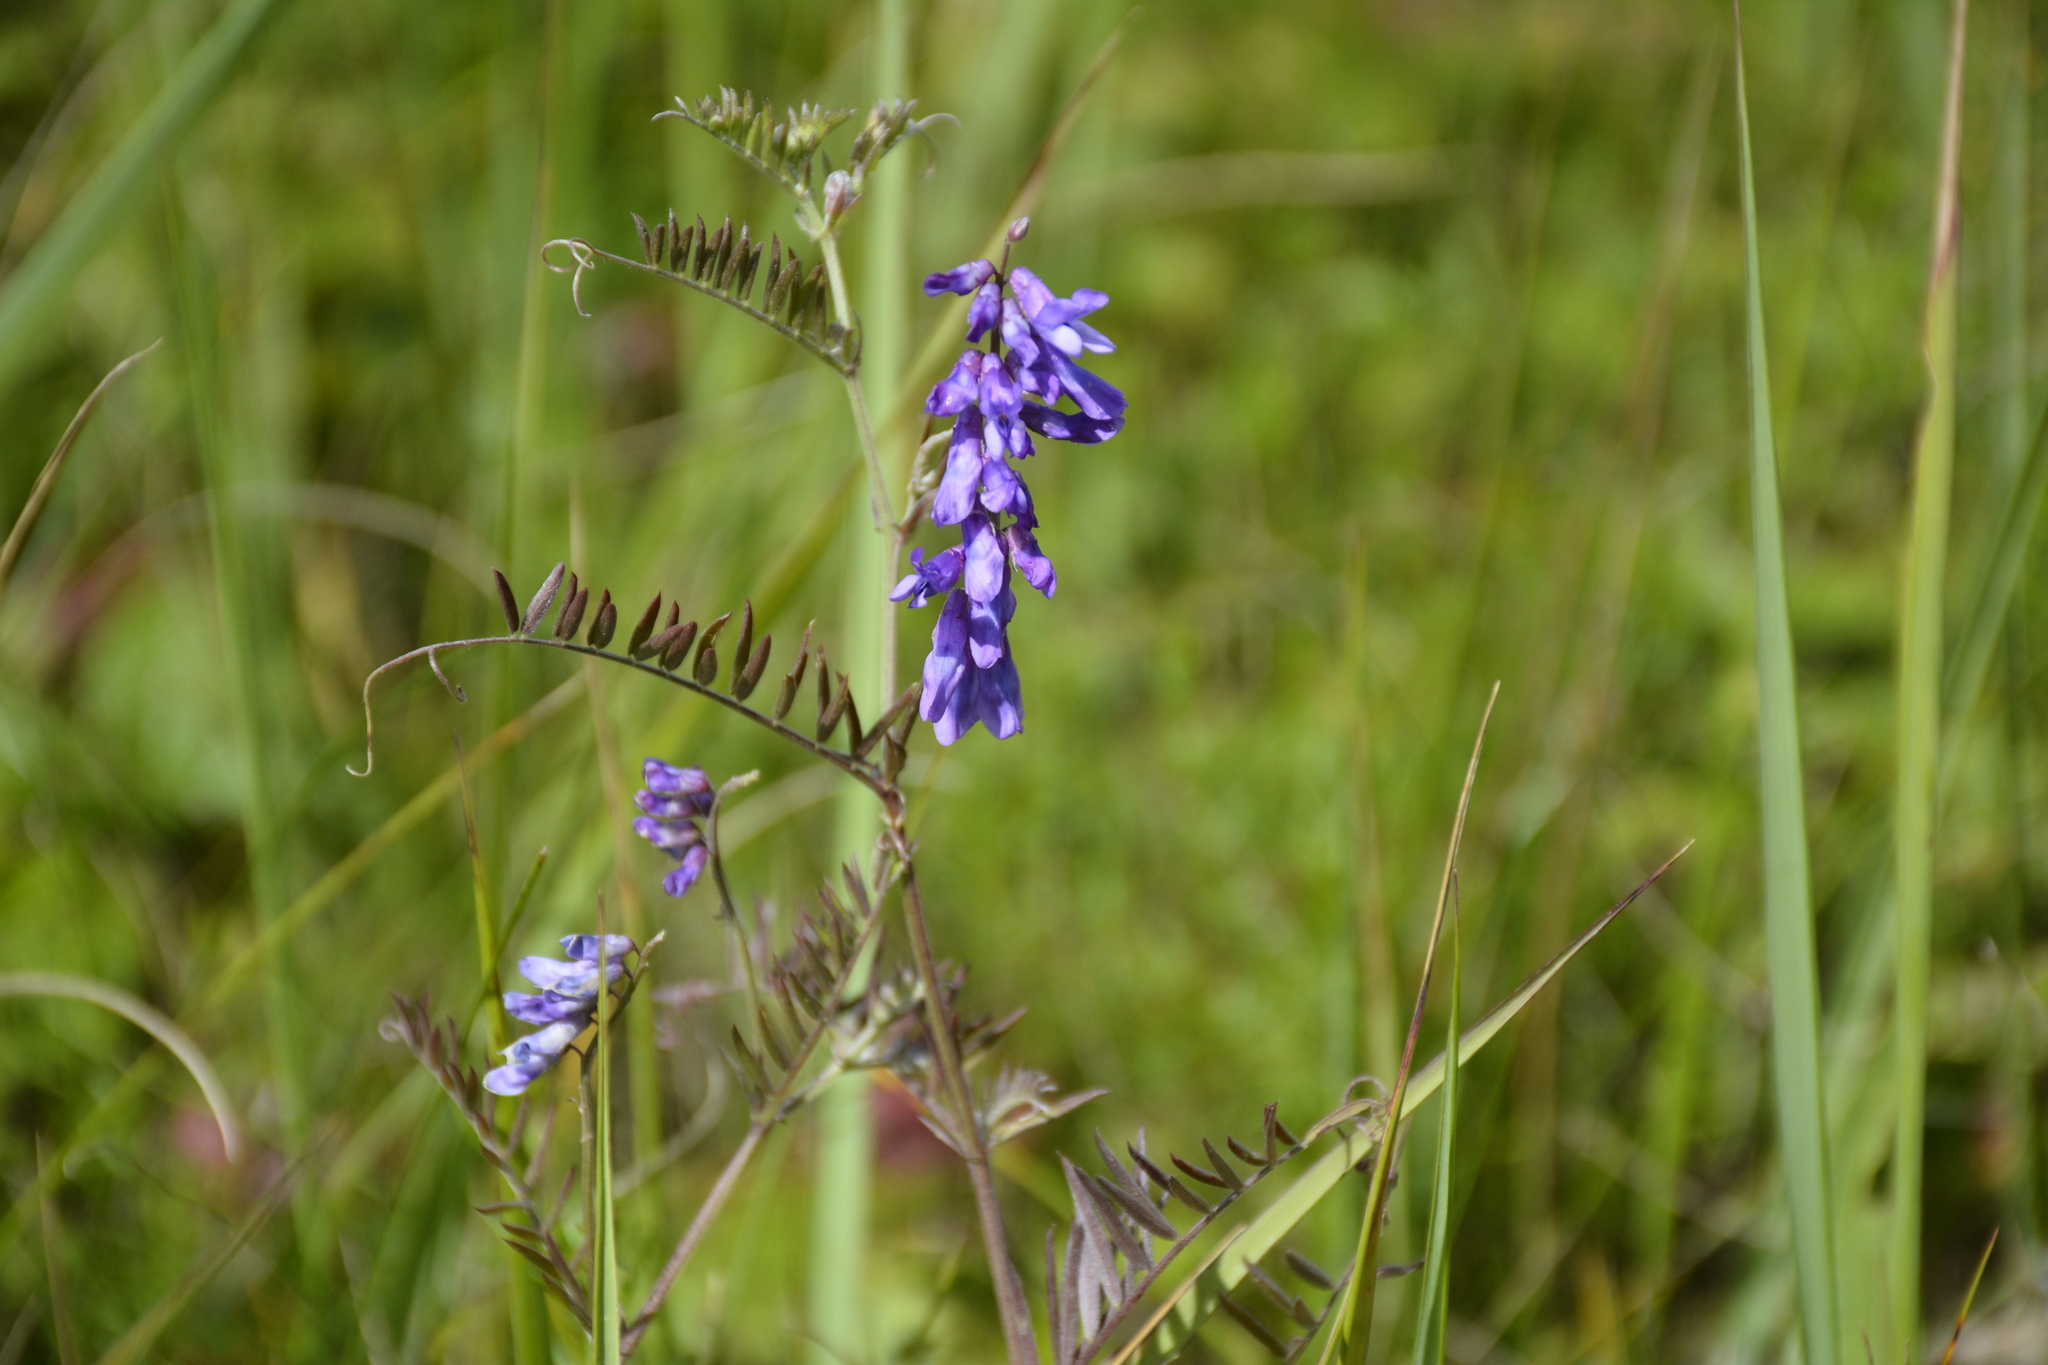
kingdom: Plantae
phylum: Tracheophyta
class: Magnoliopsida
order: Fabales
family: Fabaceae
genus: Vicia
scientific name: Vicia cracca
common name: Bird vetch
